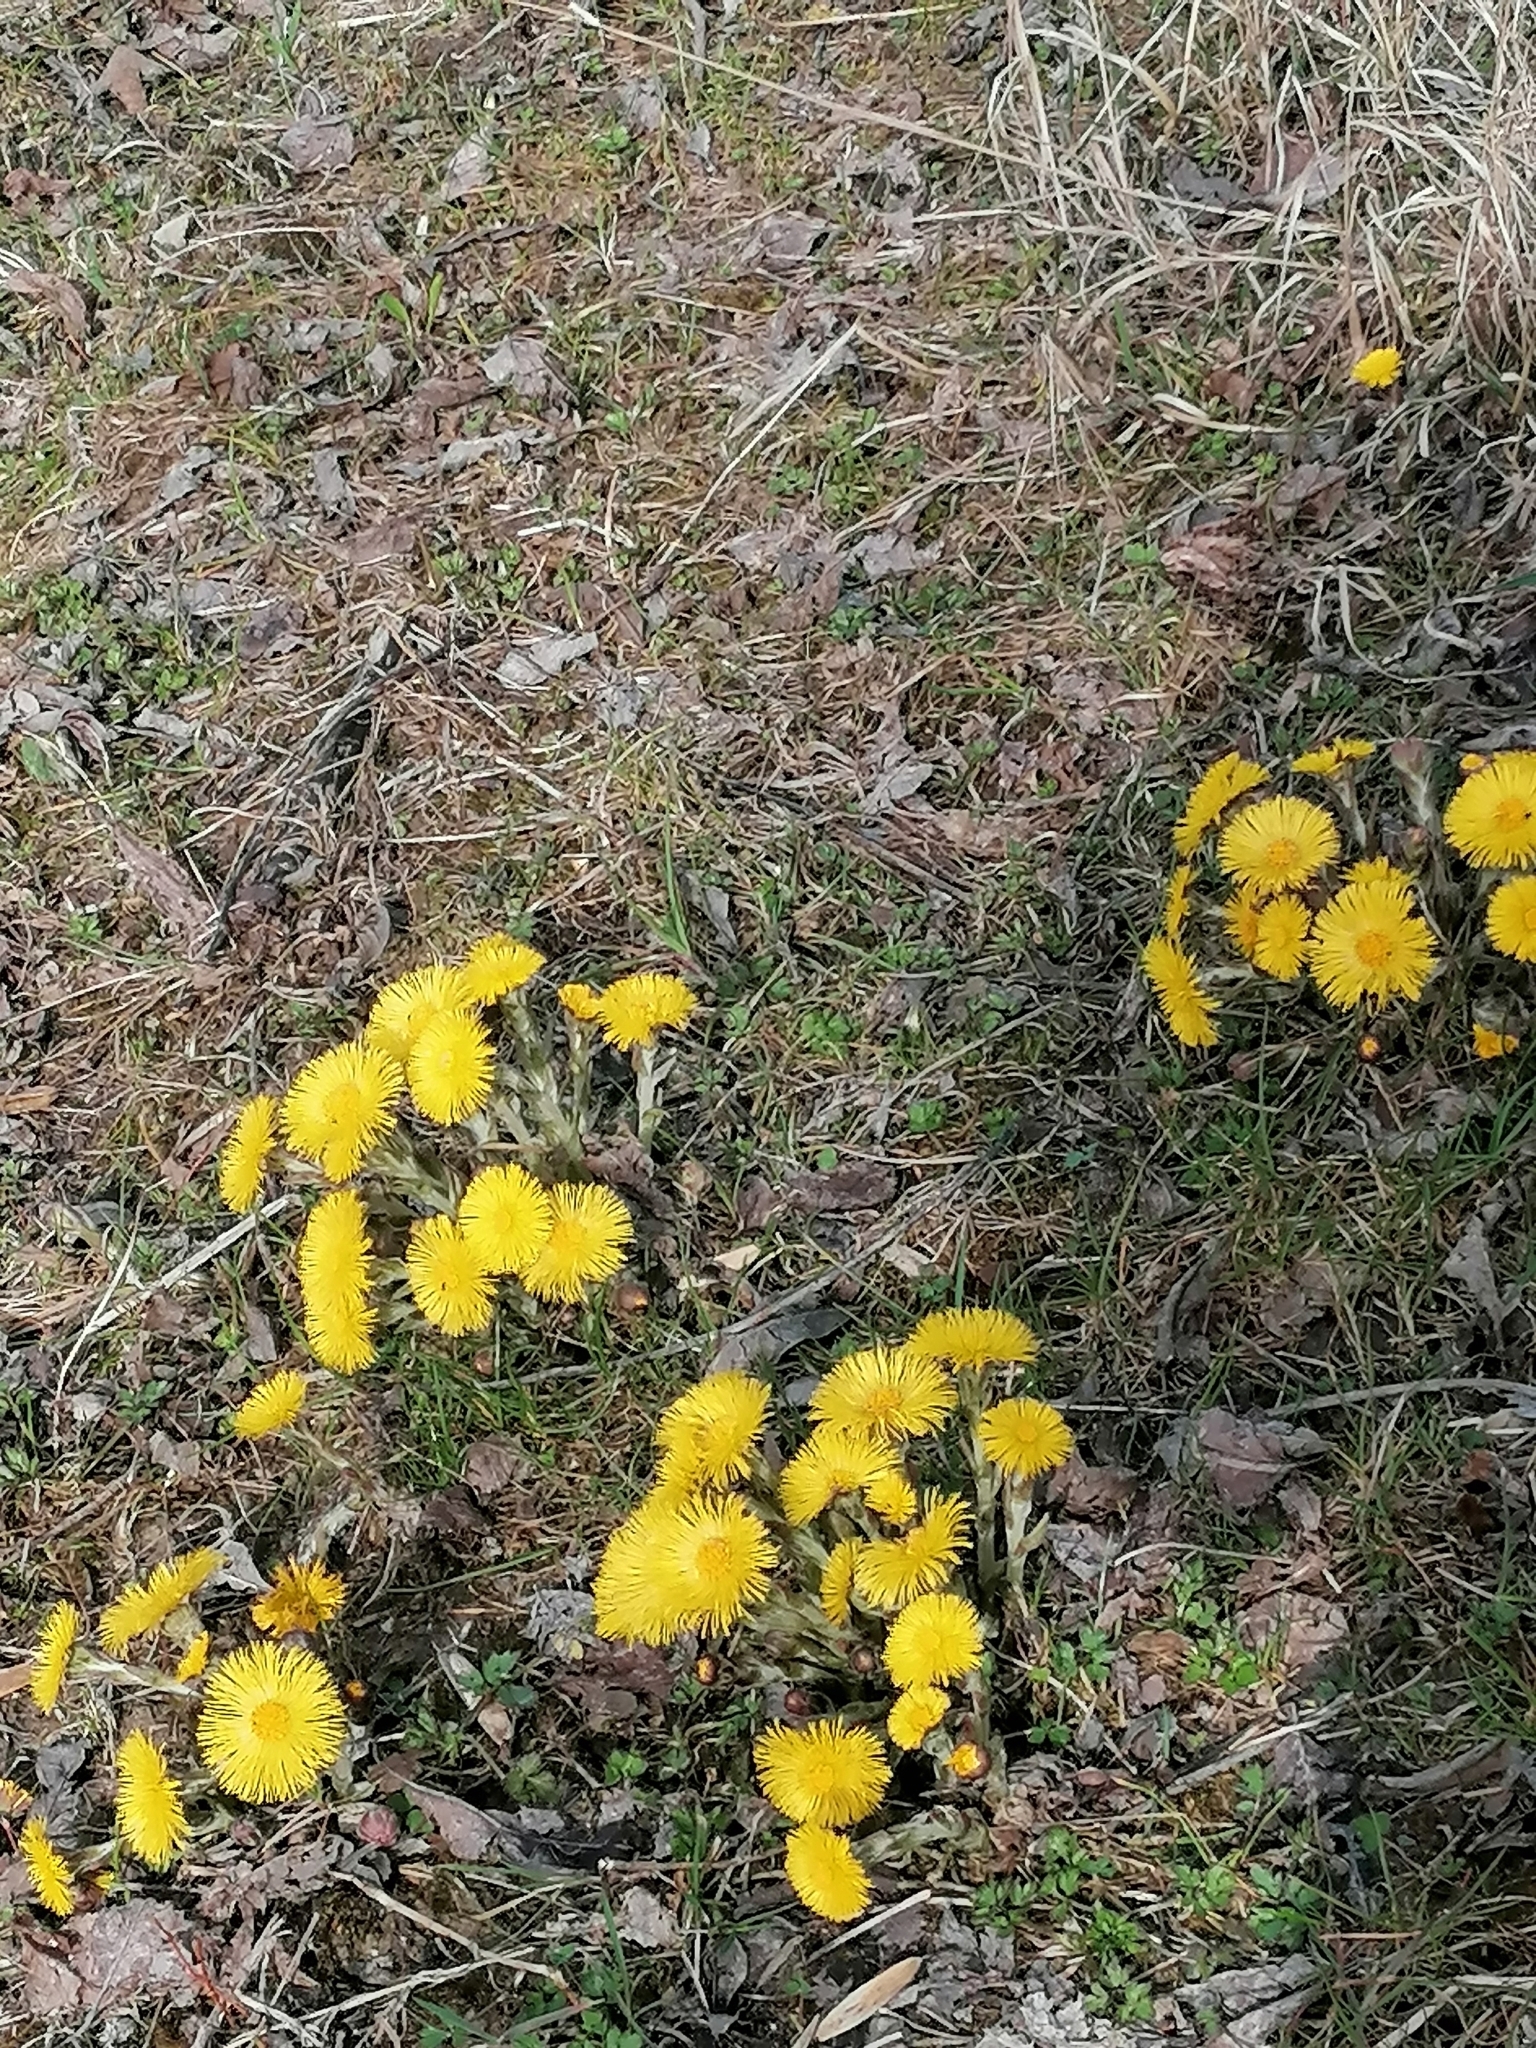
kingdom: Plantae
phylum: Tracheophyta
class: Magnoliopsida
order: Asterales
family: Asteraceae
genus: Tussilago
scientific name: Tussilago farfara
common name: Coltsfoot
